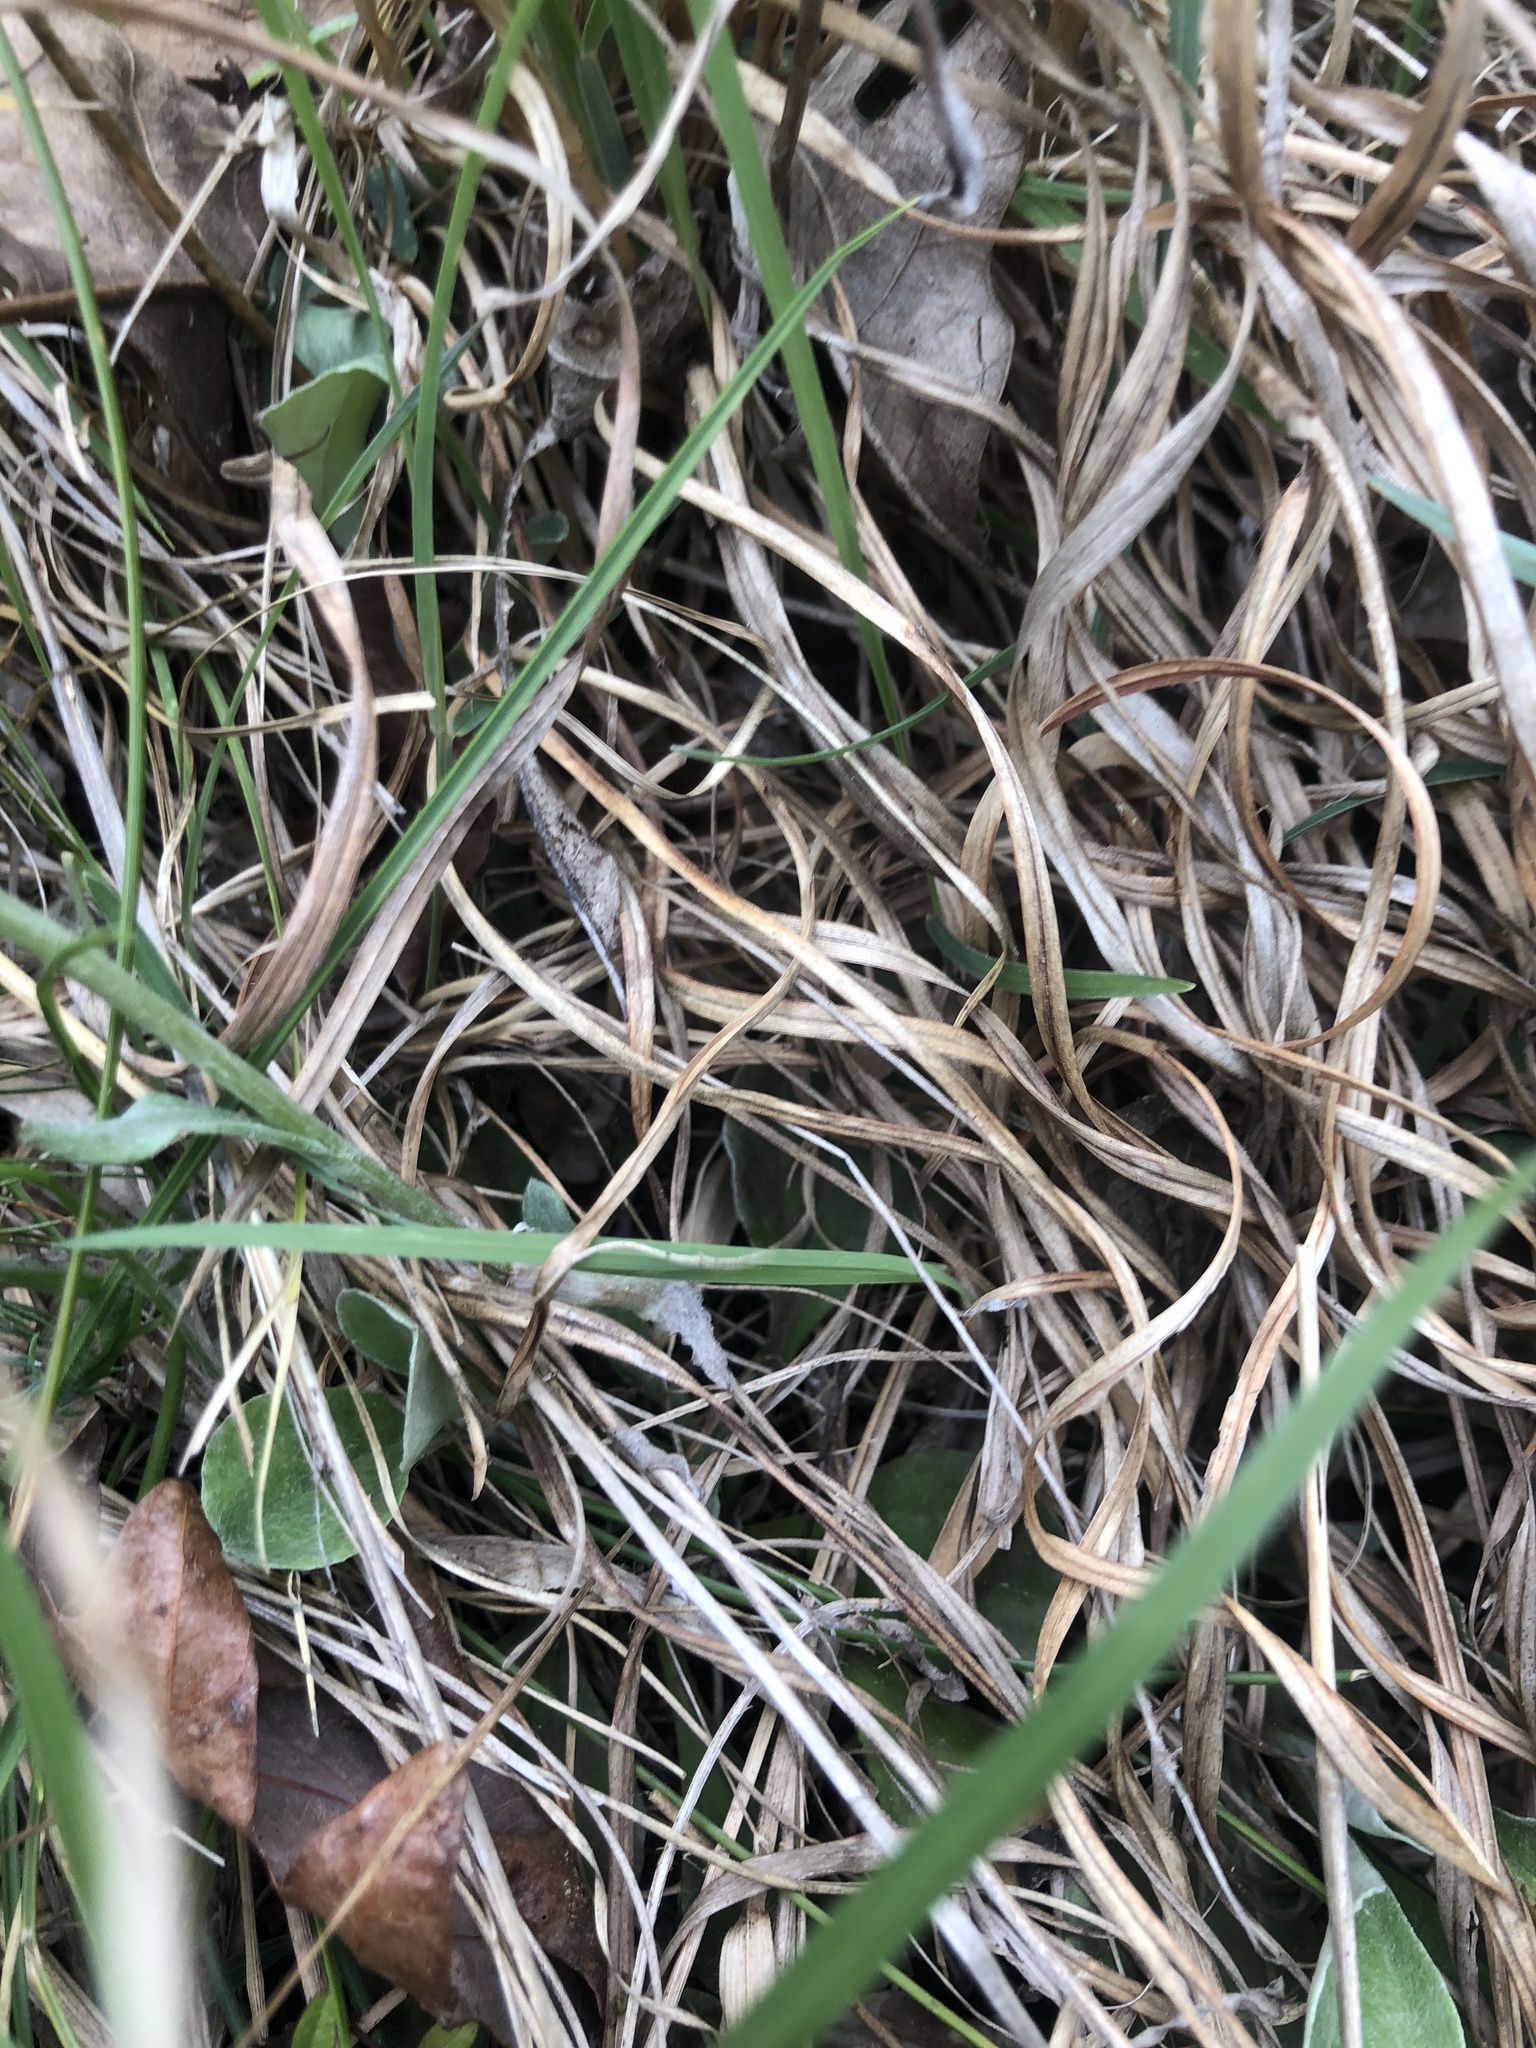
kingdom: Plantae
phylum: Tracheophyta
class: Magnoliopsida
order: Asterales
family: Asteraceae
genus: Antennaria
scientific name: Antennaria plantaginifolia
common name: Plantain-leaved pussytoes
